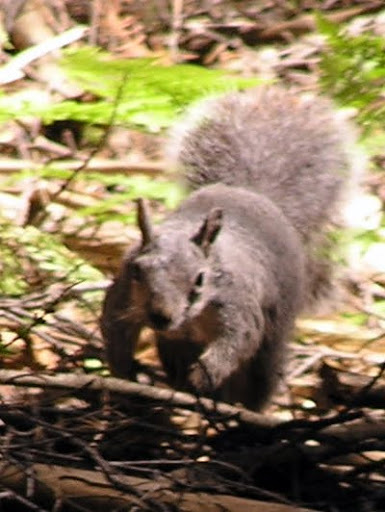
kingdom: Animalia
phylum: Chordata
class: Mammalia
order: Rodentia
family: Sciuridae
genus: Sciurus
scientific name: Sciurus griseus
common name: Western gray squirrel
